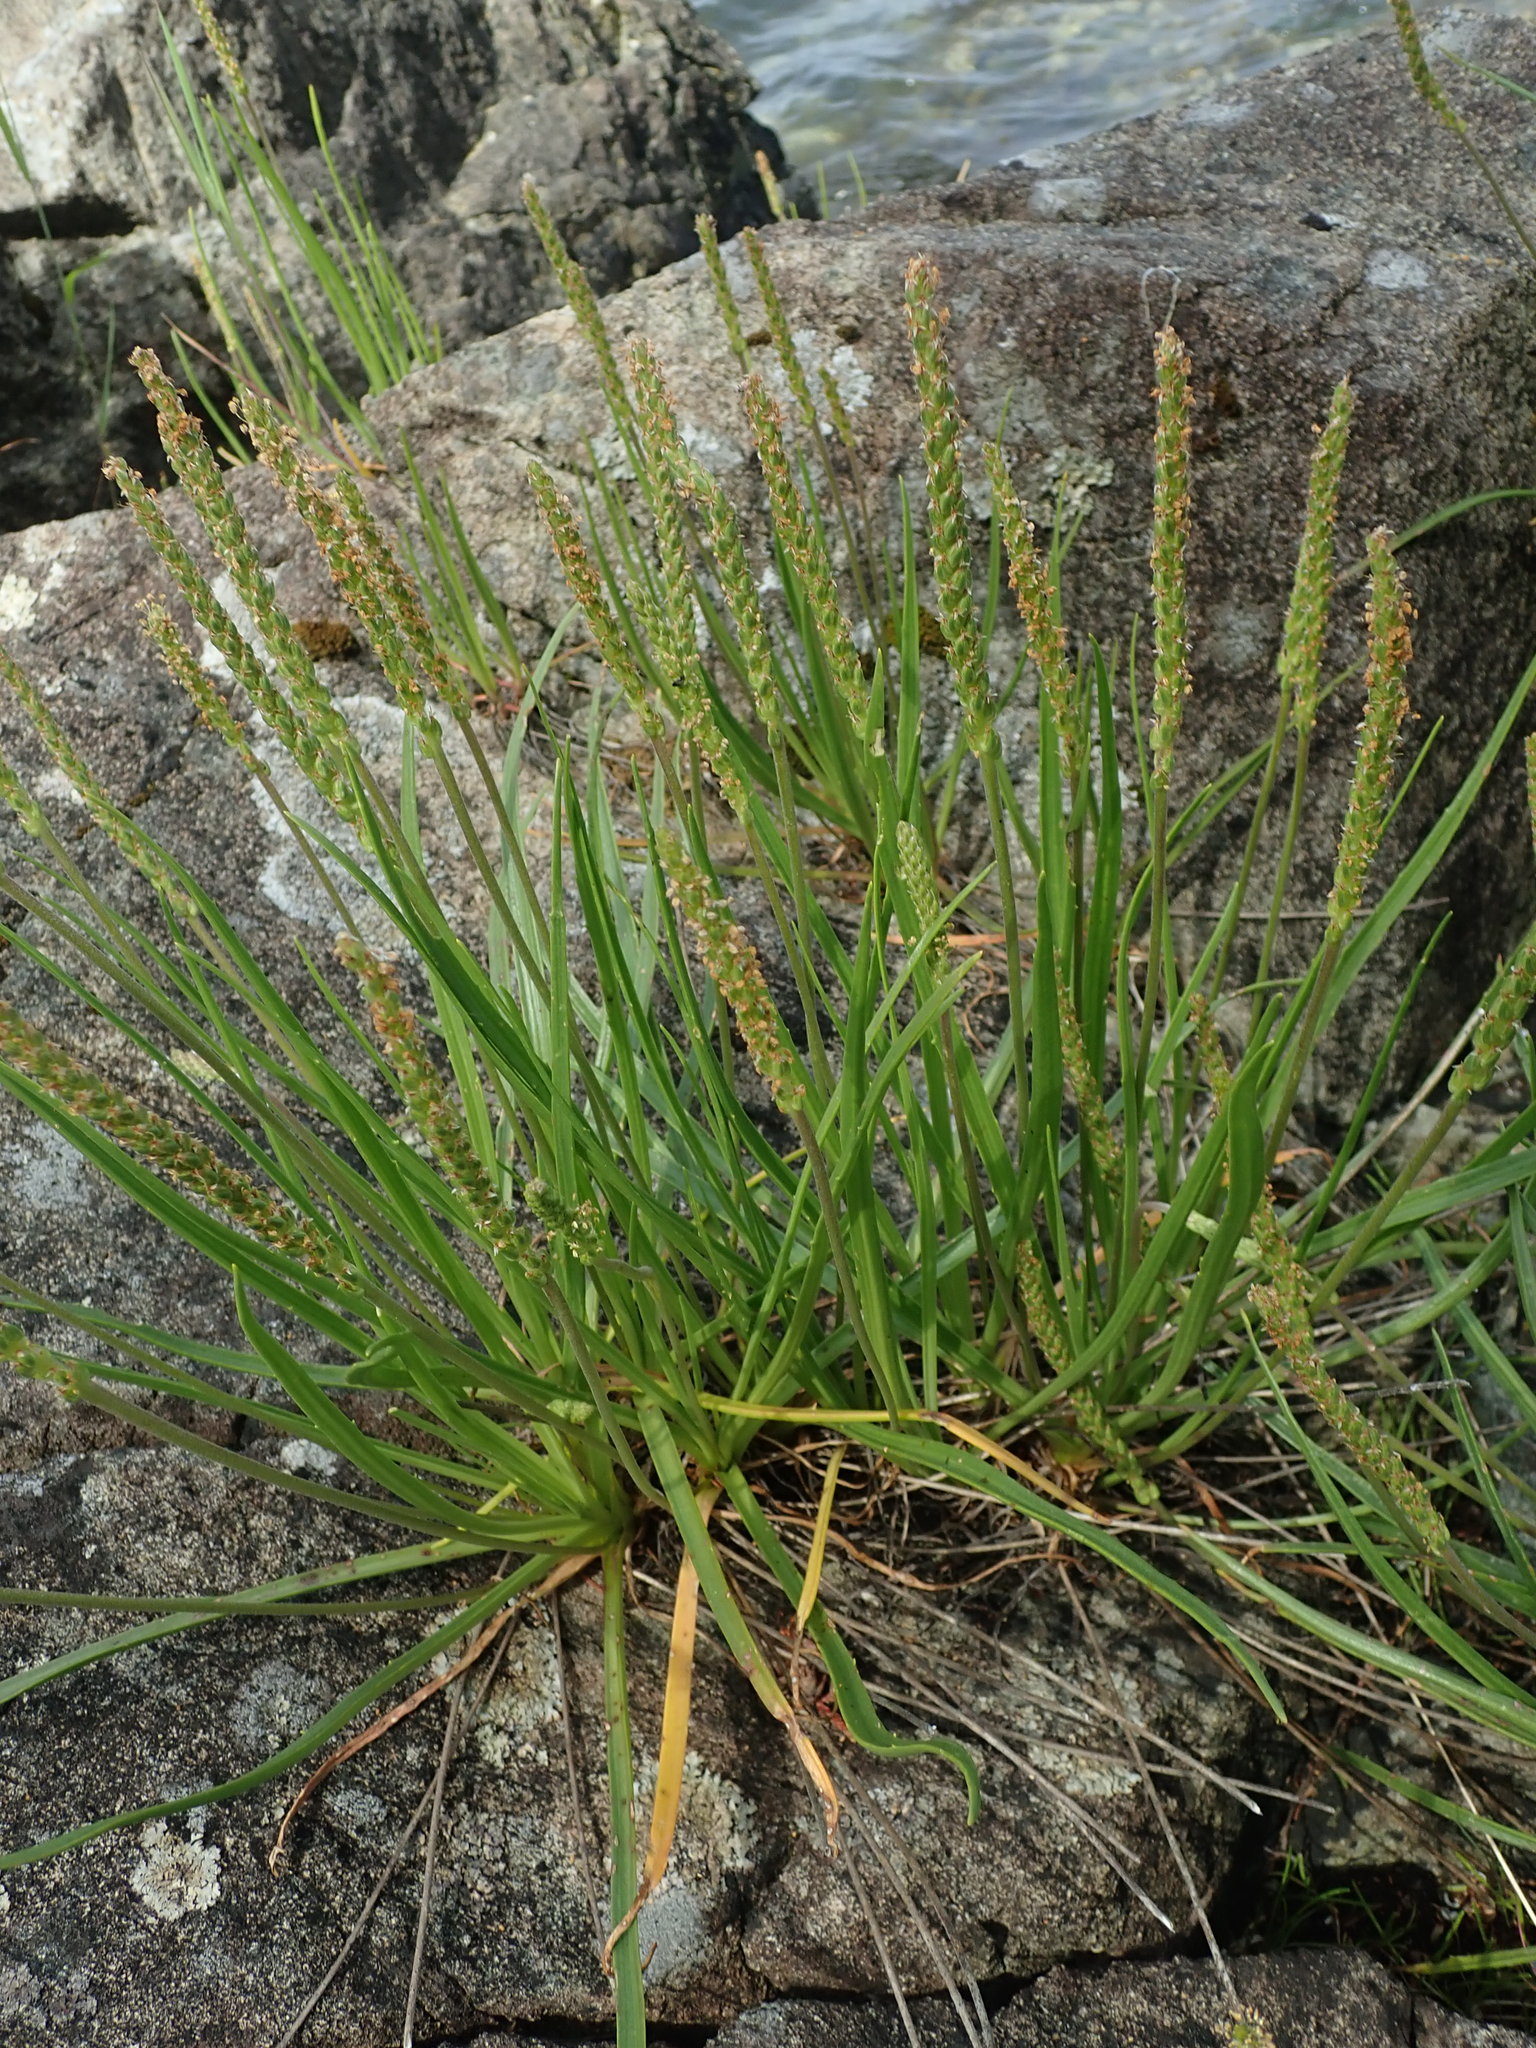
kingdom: Plantae
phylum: Tracheophyta
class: Magnoliopsida
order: Lamiales
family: Plantaginaceae
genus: Plantago
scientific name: Plantago maritima
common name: Sea plantain
